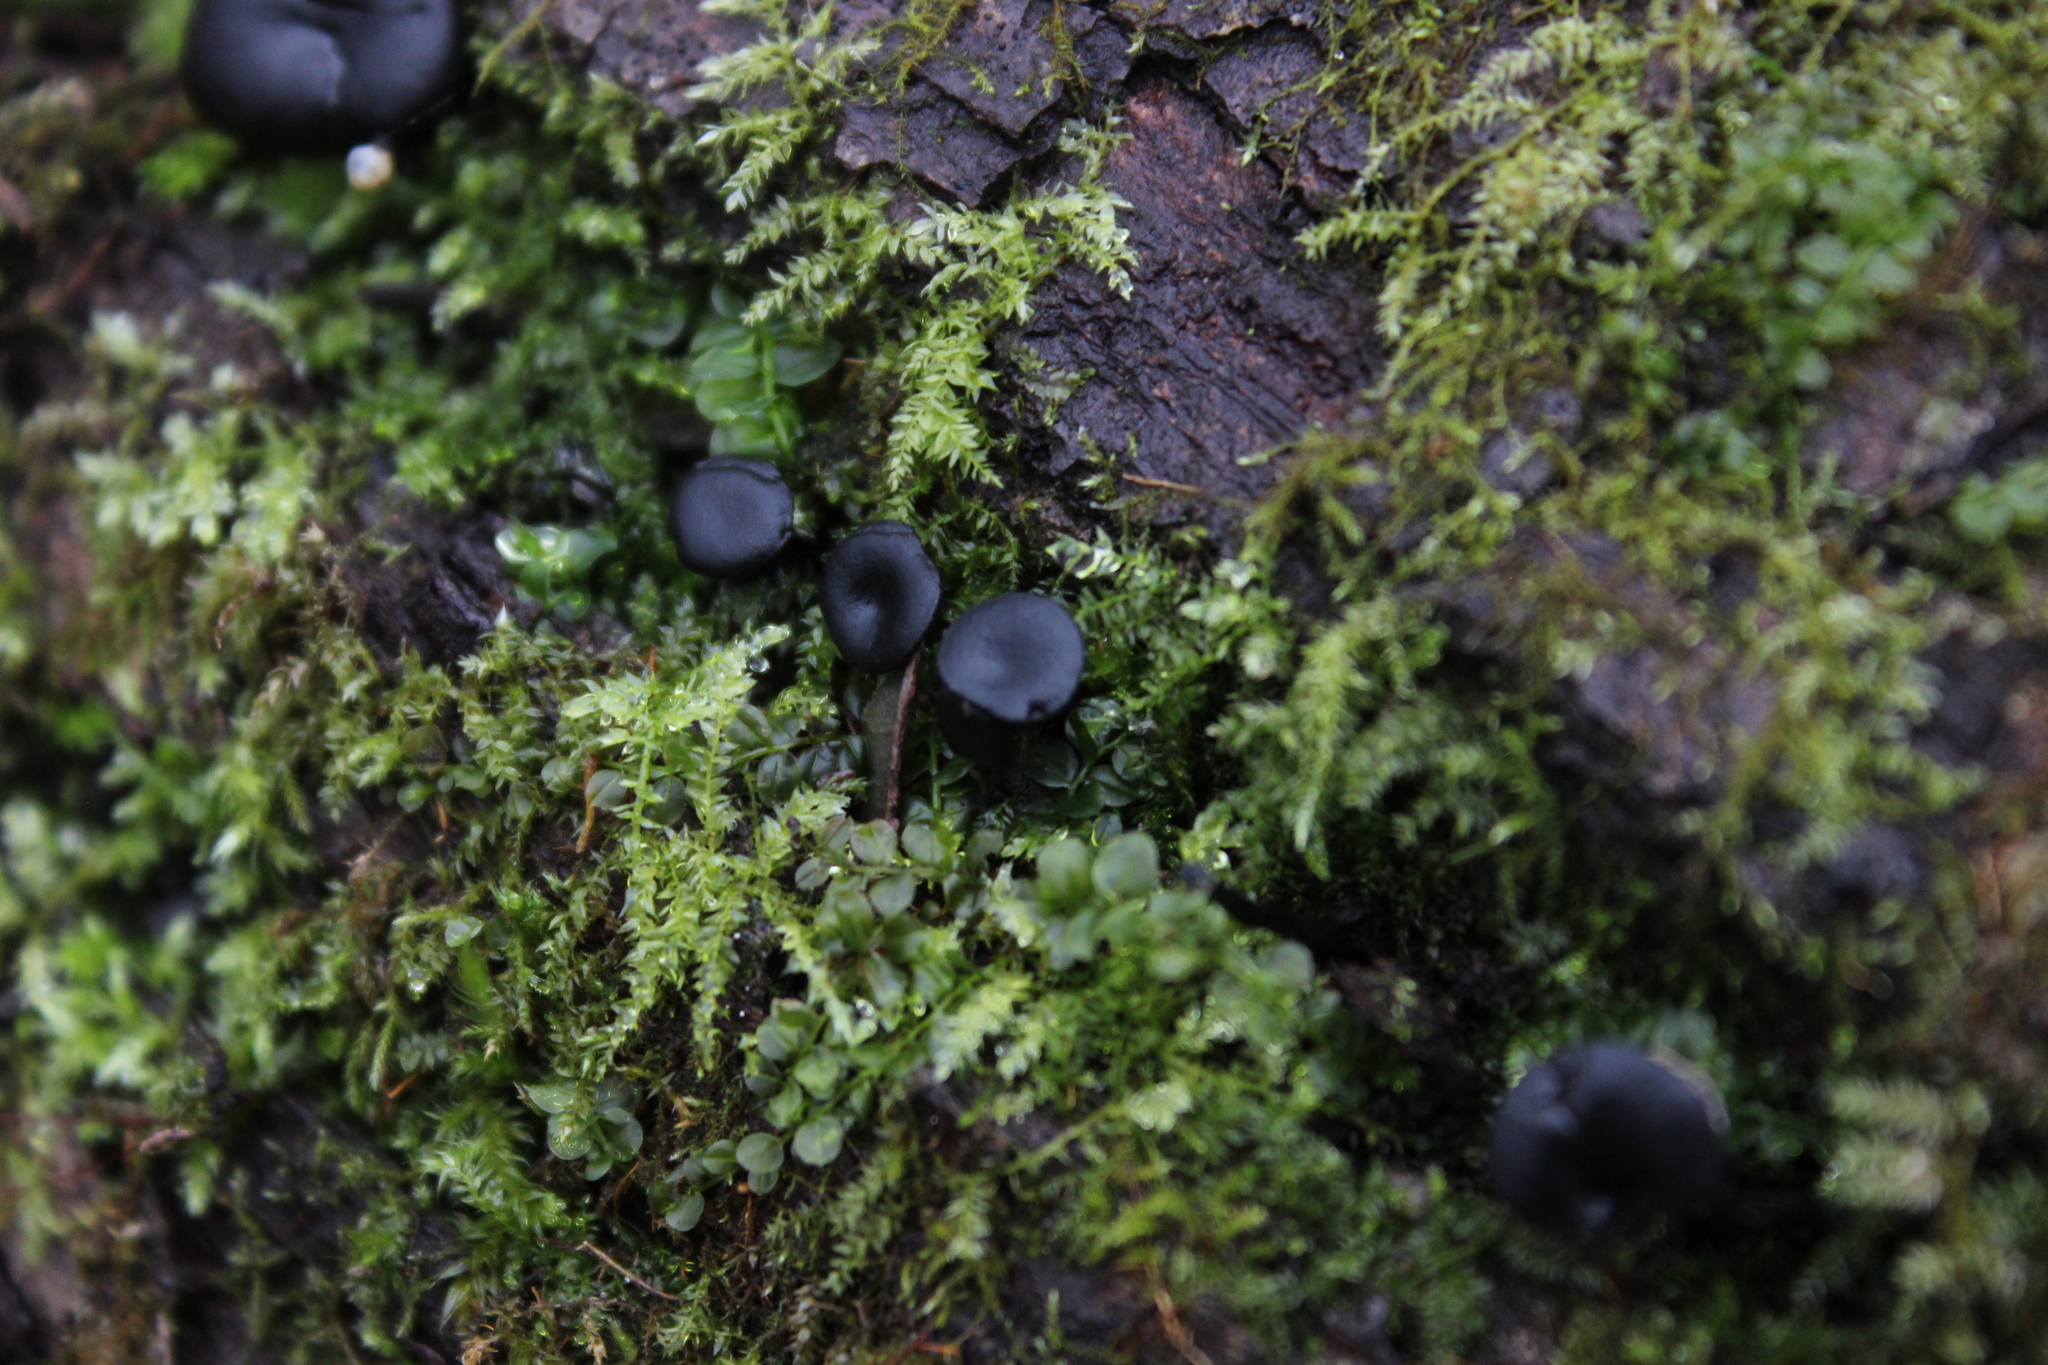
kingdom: Fungi
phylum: Ascomycota
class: Leotiomycetes
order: Helotiales
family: Bulgariaceae
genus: Holwaya
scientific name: Holwaya mucida
